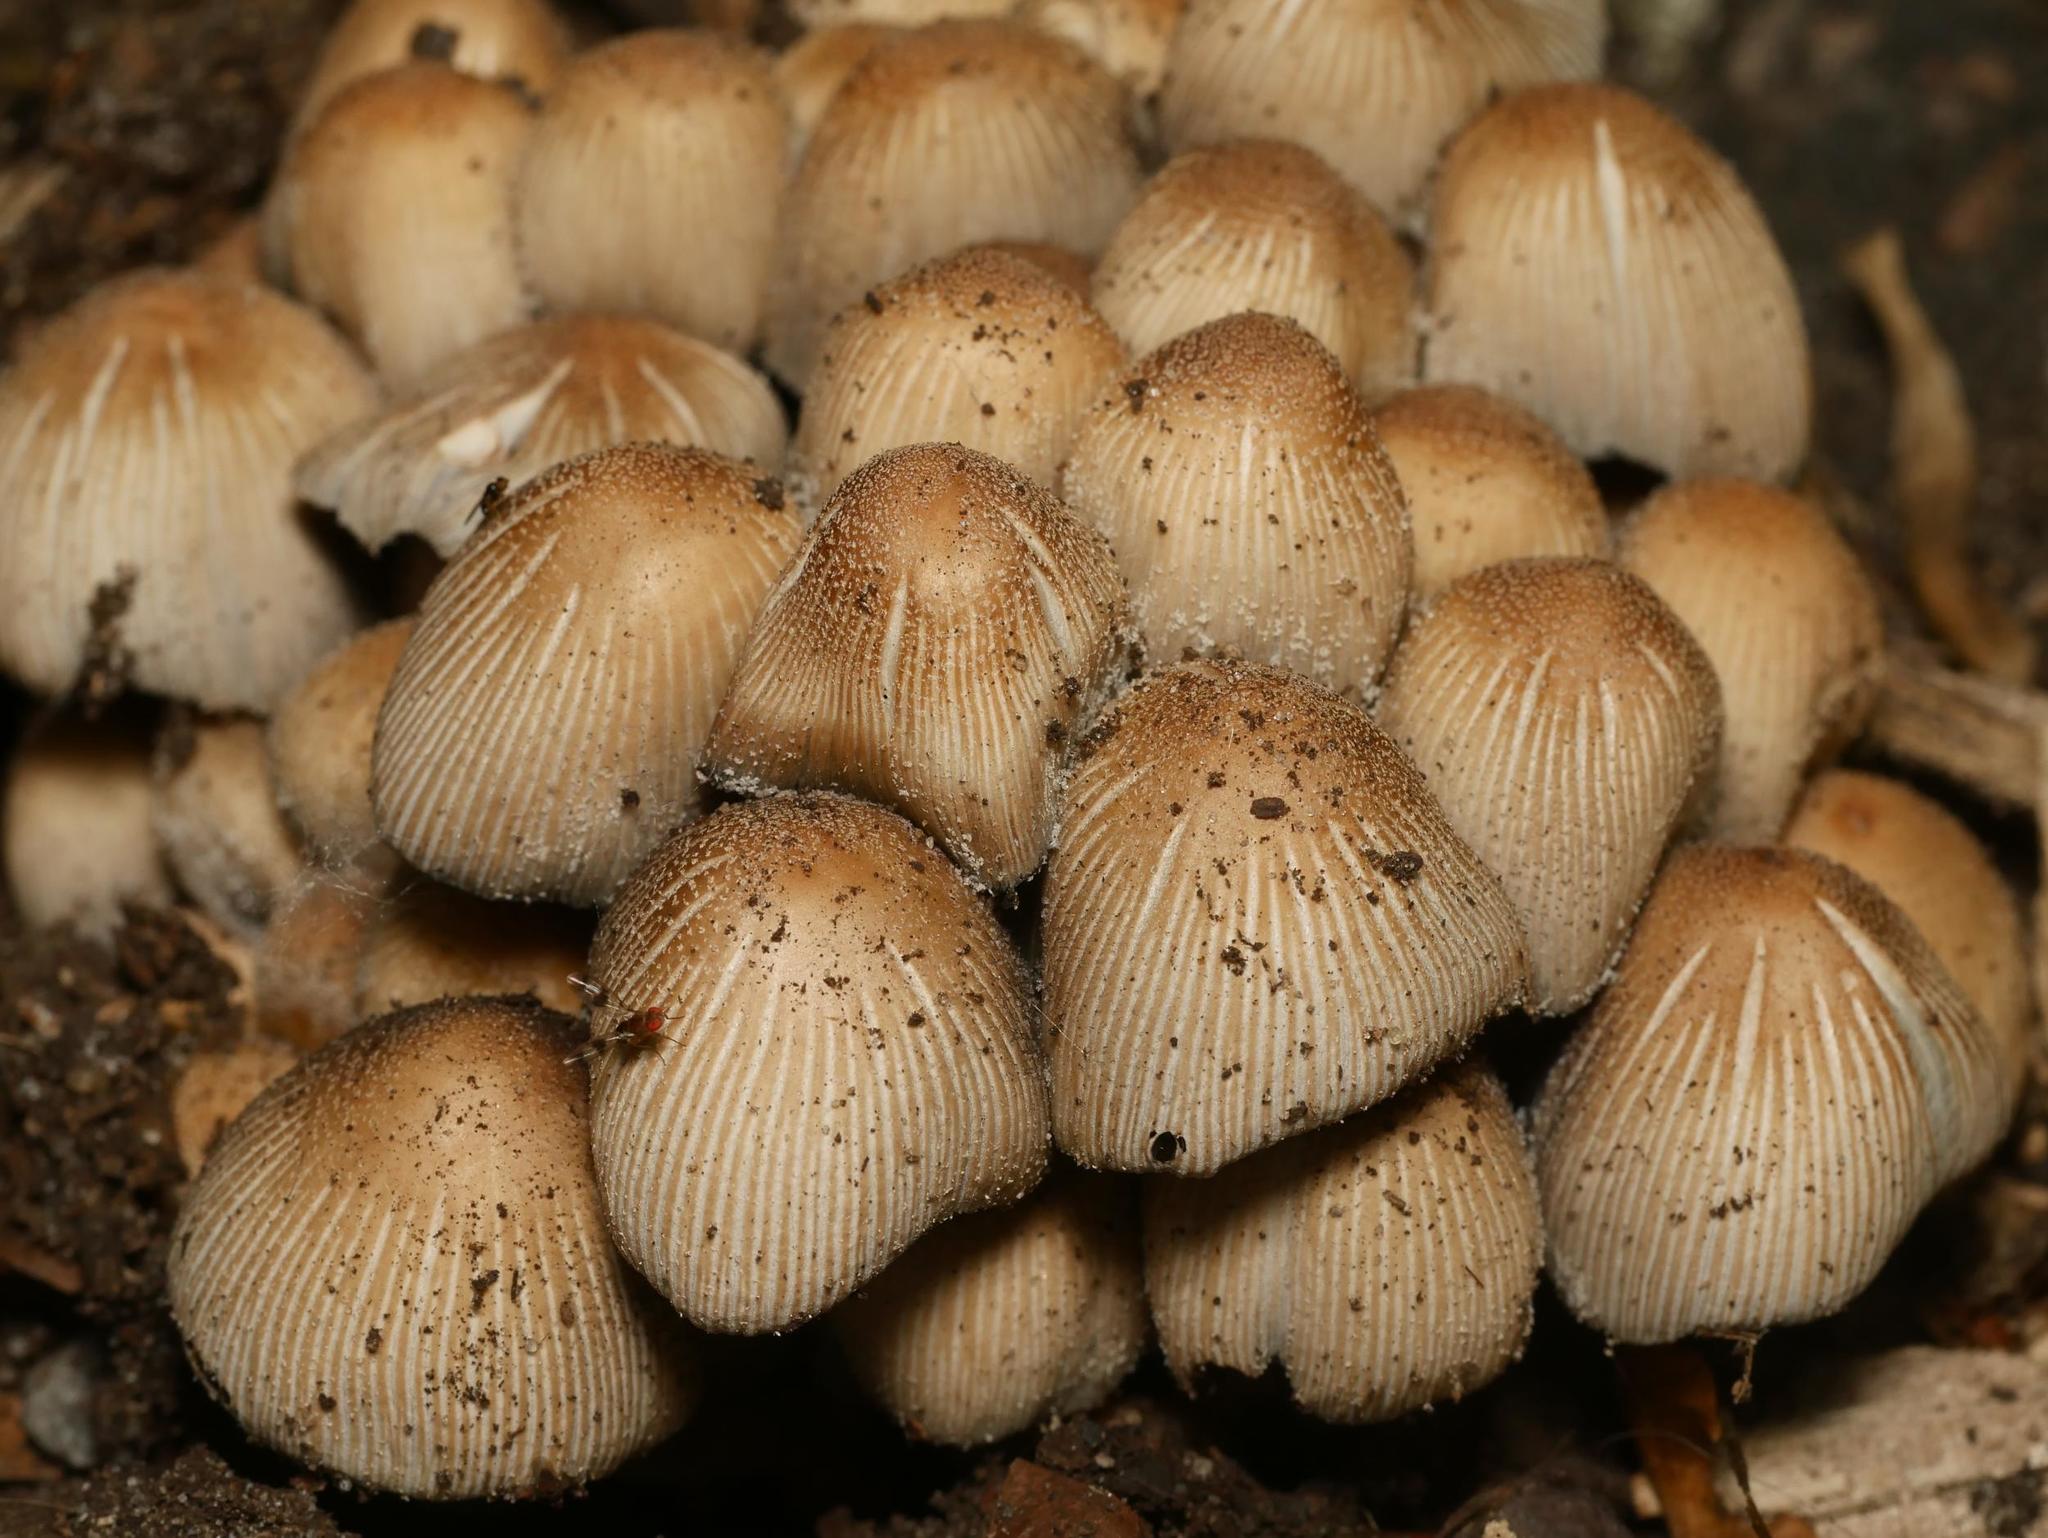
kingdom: Fungi
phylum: Basidiomycota
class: Agaricomycetes
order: Agaricales
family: Psathyrellaceae
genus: Coprinellus
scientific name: Coprinellus micaceus
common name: Glistening ink-cap
